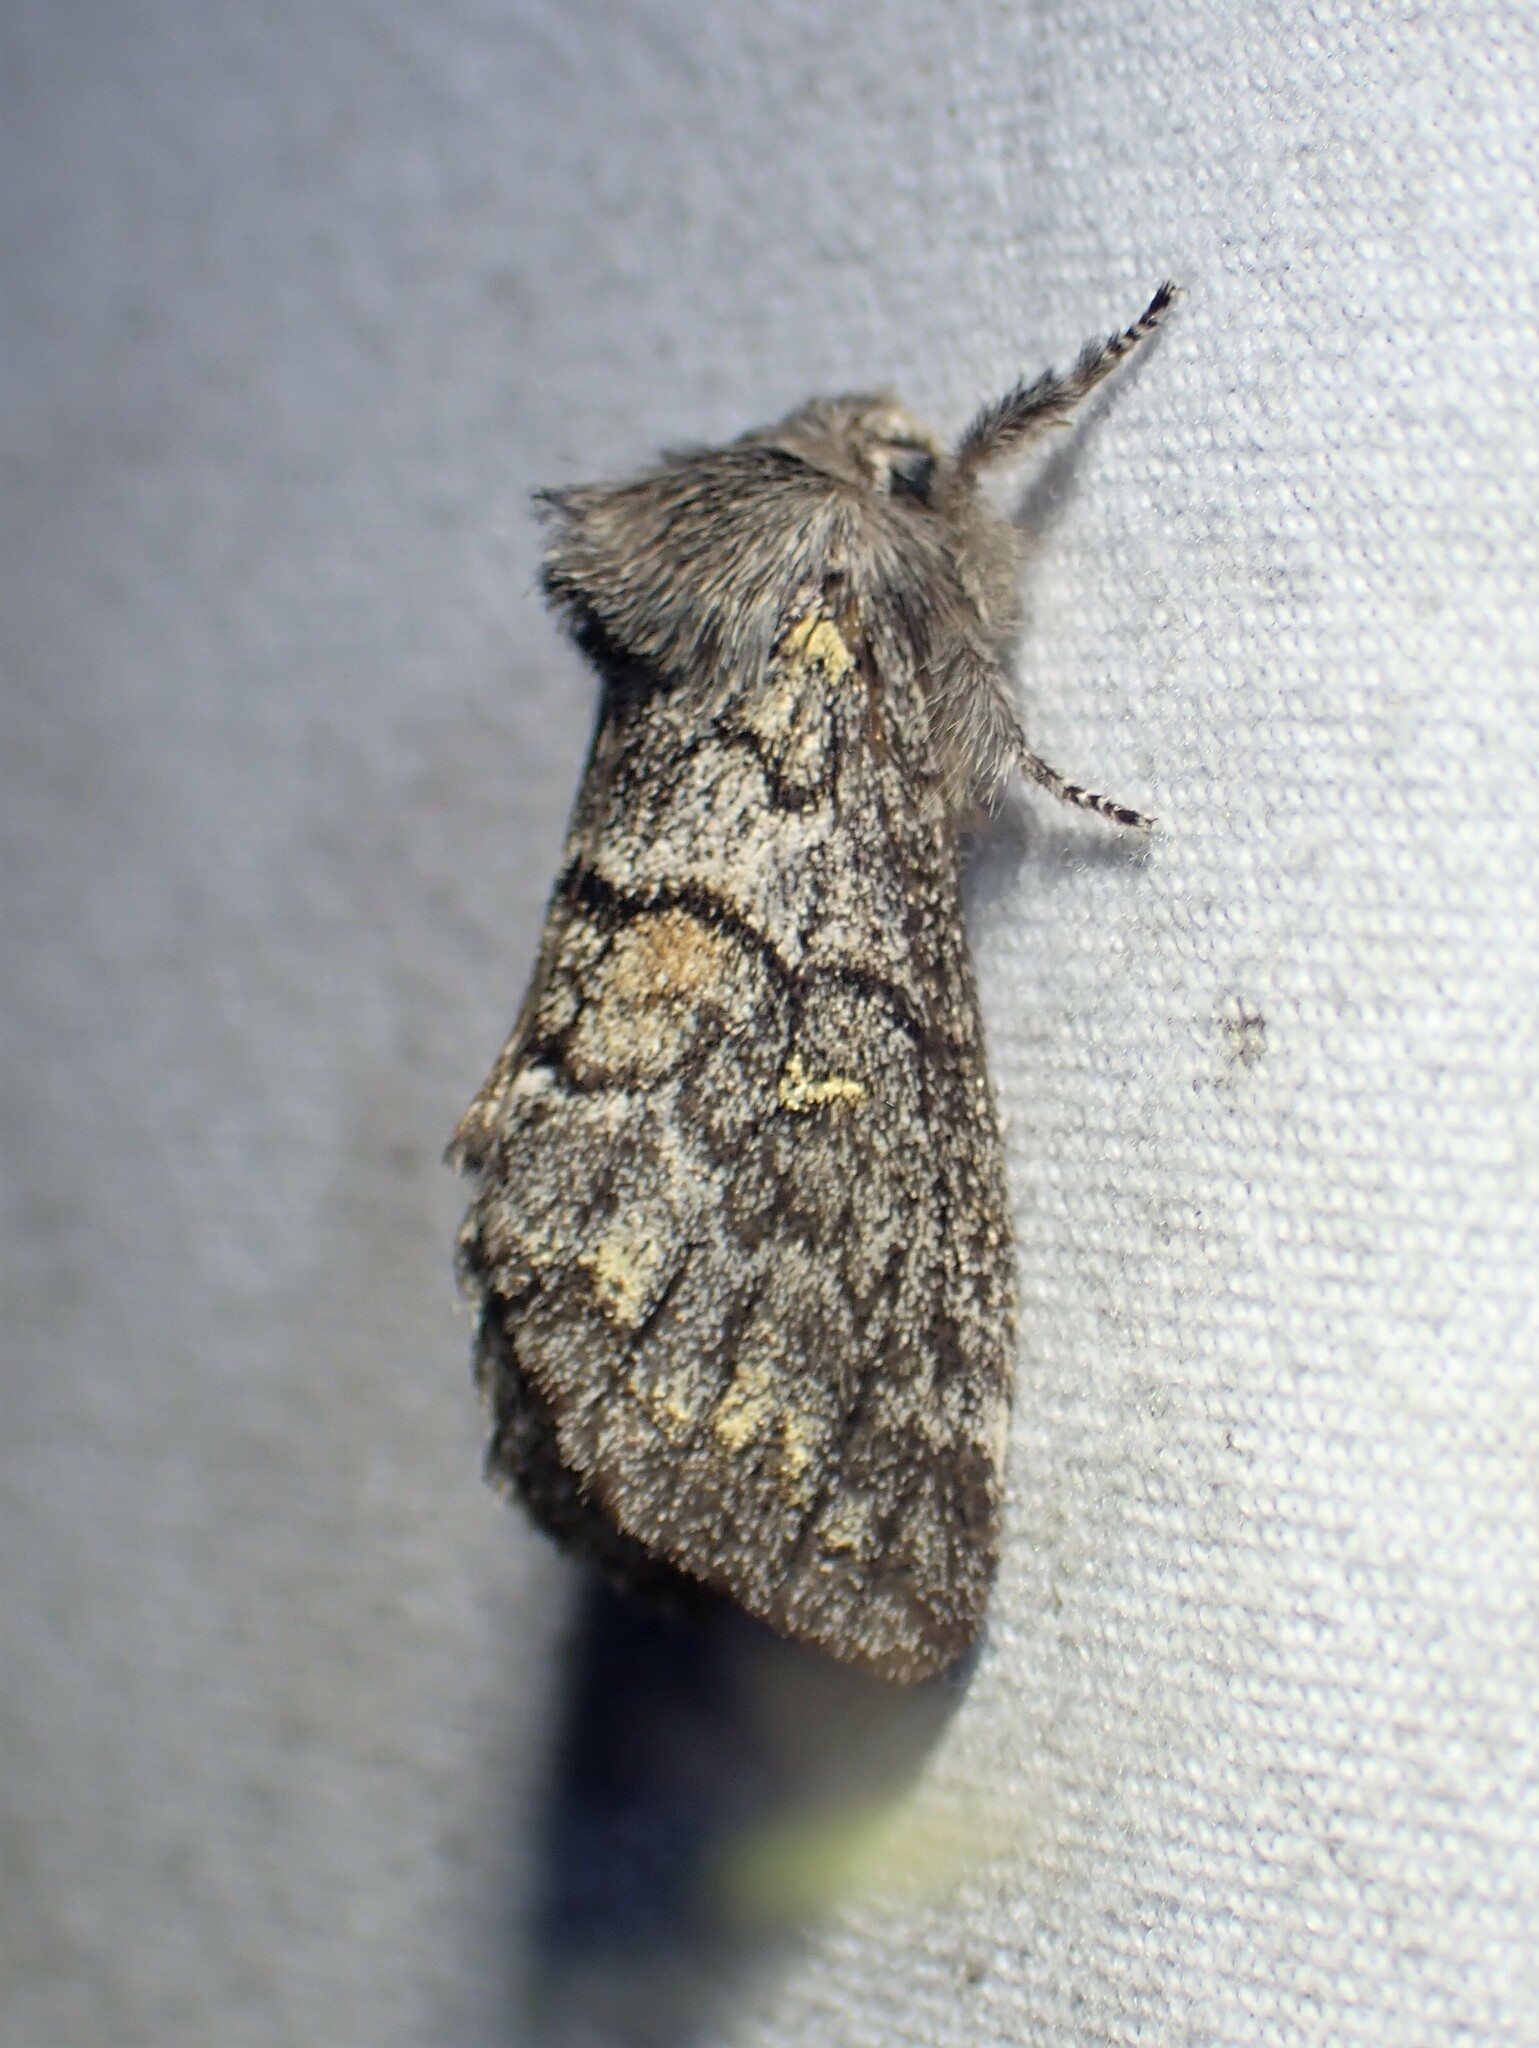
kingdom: Animalia
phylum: Arthropoda
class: Insecta
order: Lepidoptera
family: Notodontidae
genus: Gluphisia
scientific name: Gluphisia avimacula
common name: Four-spotted gluphisia moth
